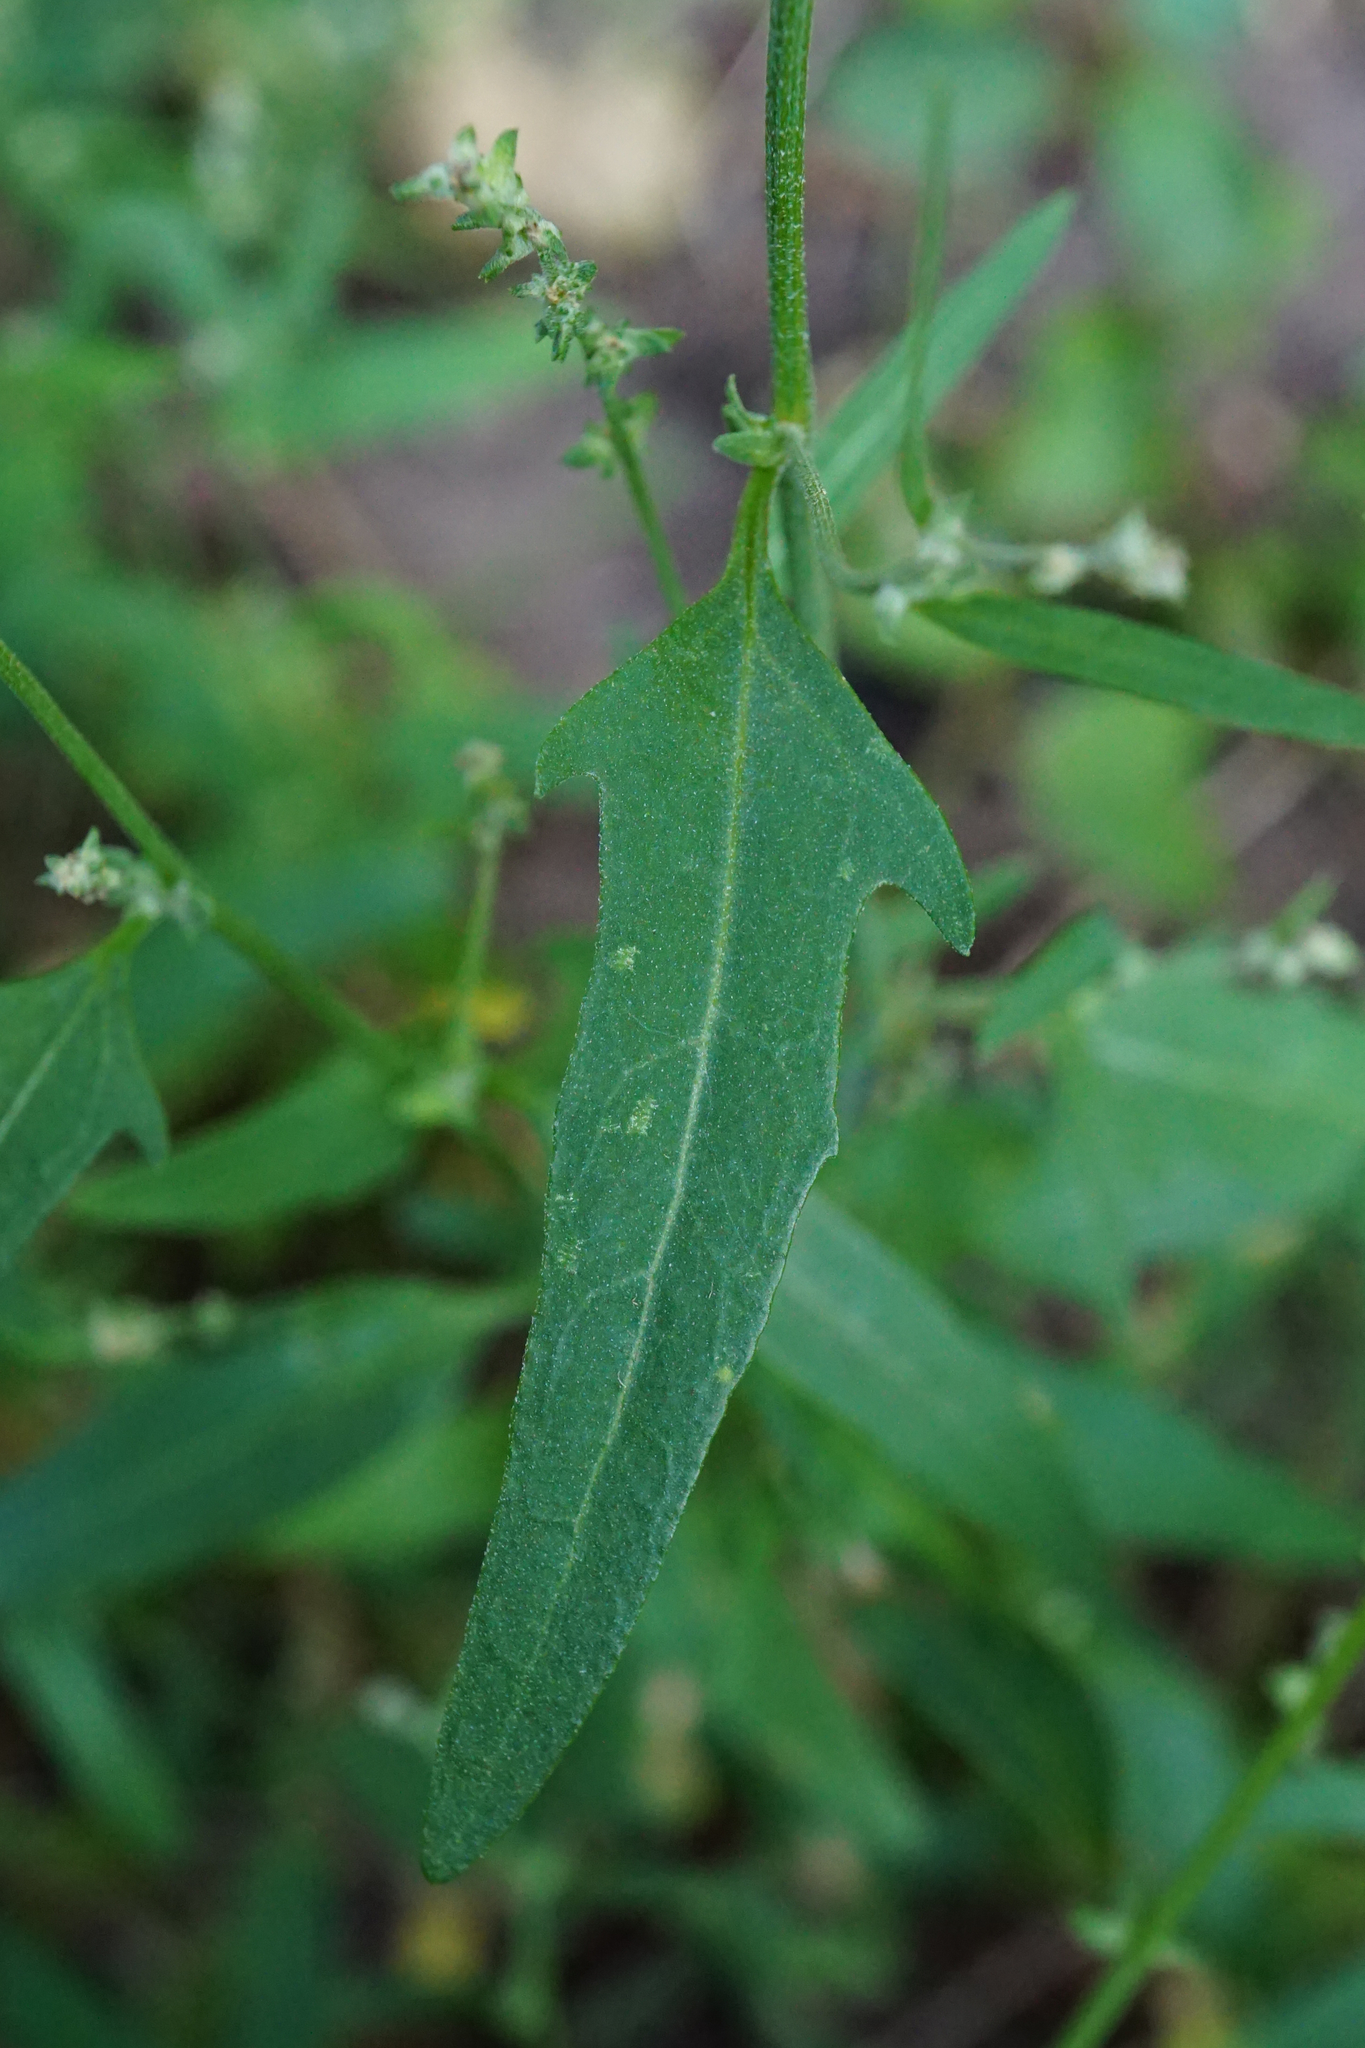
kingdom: Plantae
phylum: Tracheophyta
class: Magnoliopsida
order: Caryophyllales
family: Amaranthaceae
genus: Atriplex
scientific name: Atriplex patula
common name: Common orache
